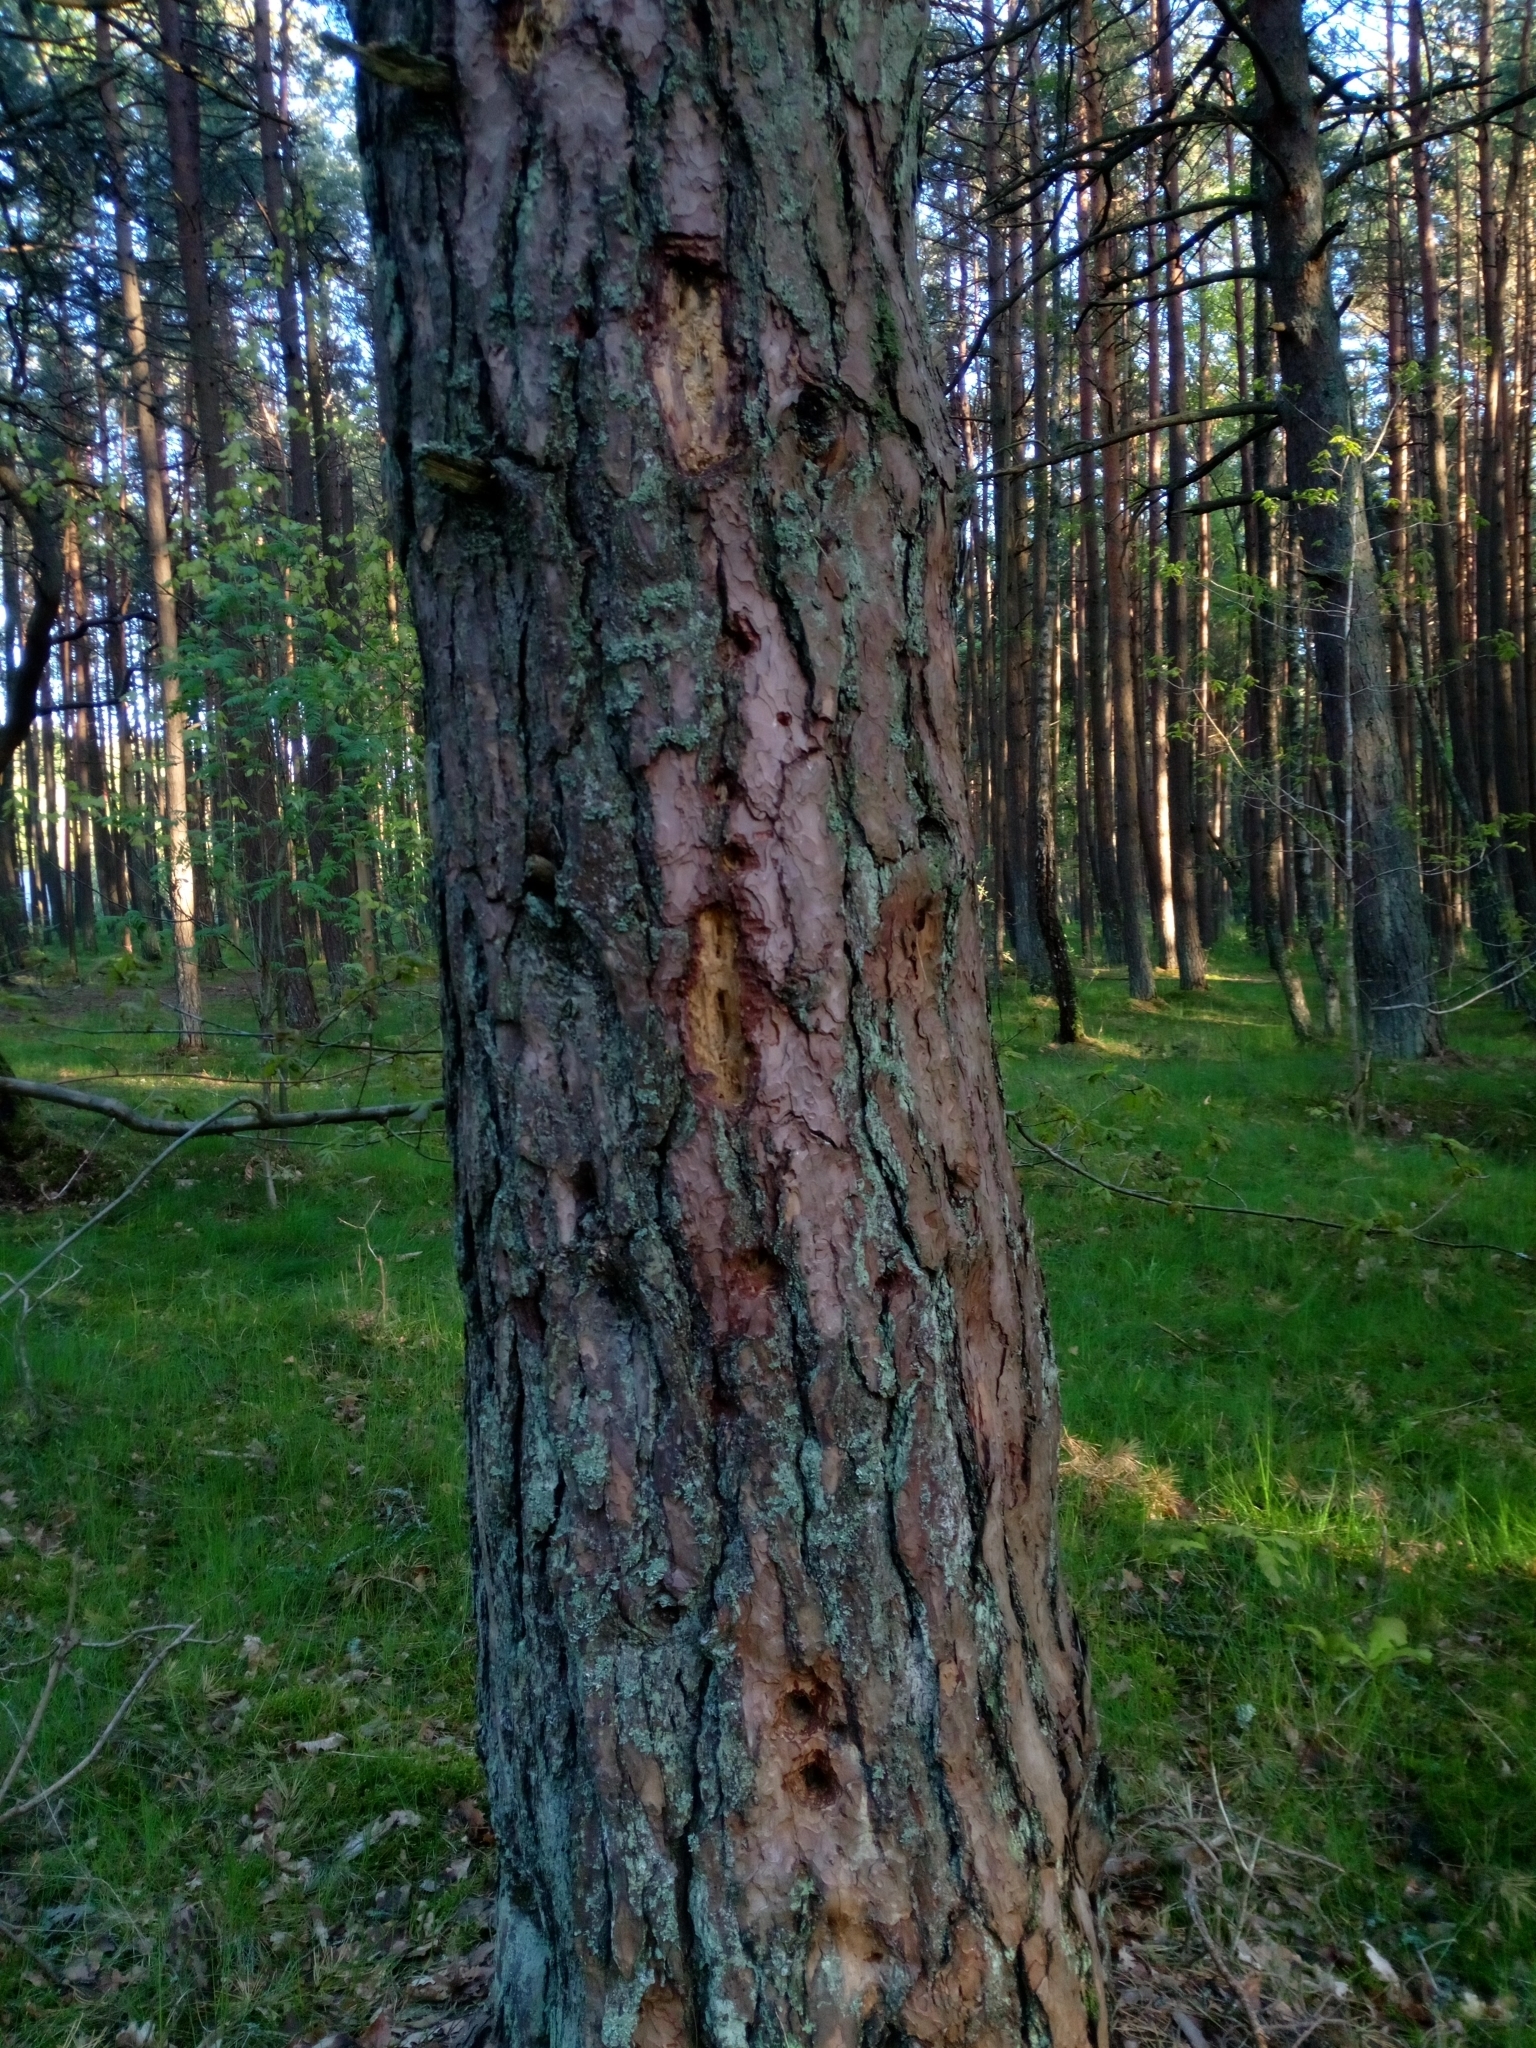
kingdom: Animalia
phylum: Chordata
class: Aves
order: Piciformes
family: Picidae
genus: Dryocopus
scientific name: Dryocopus martius
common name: Black woodpecker
